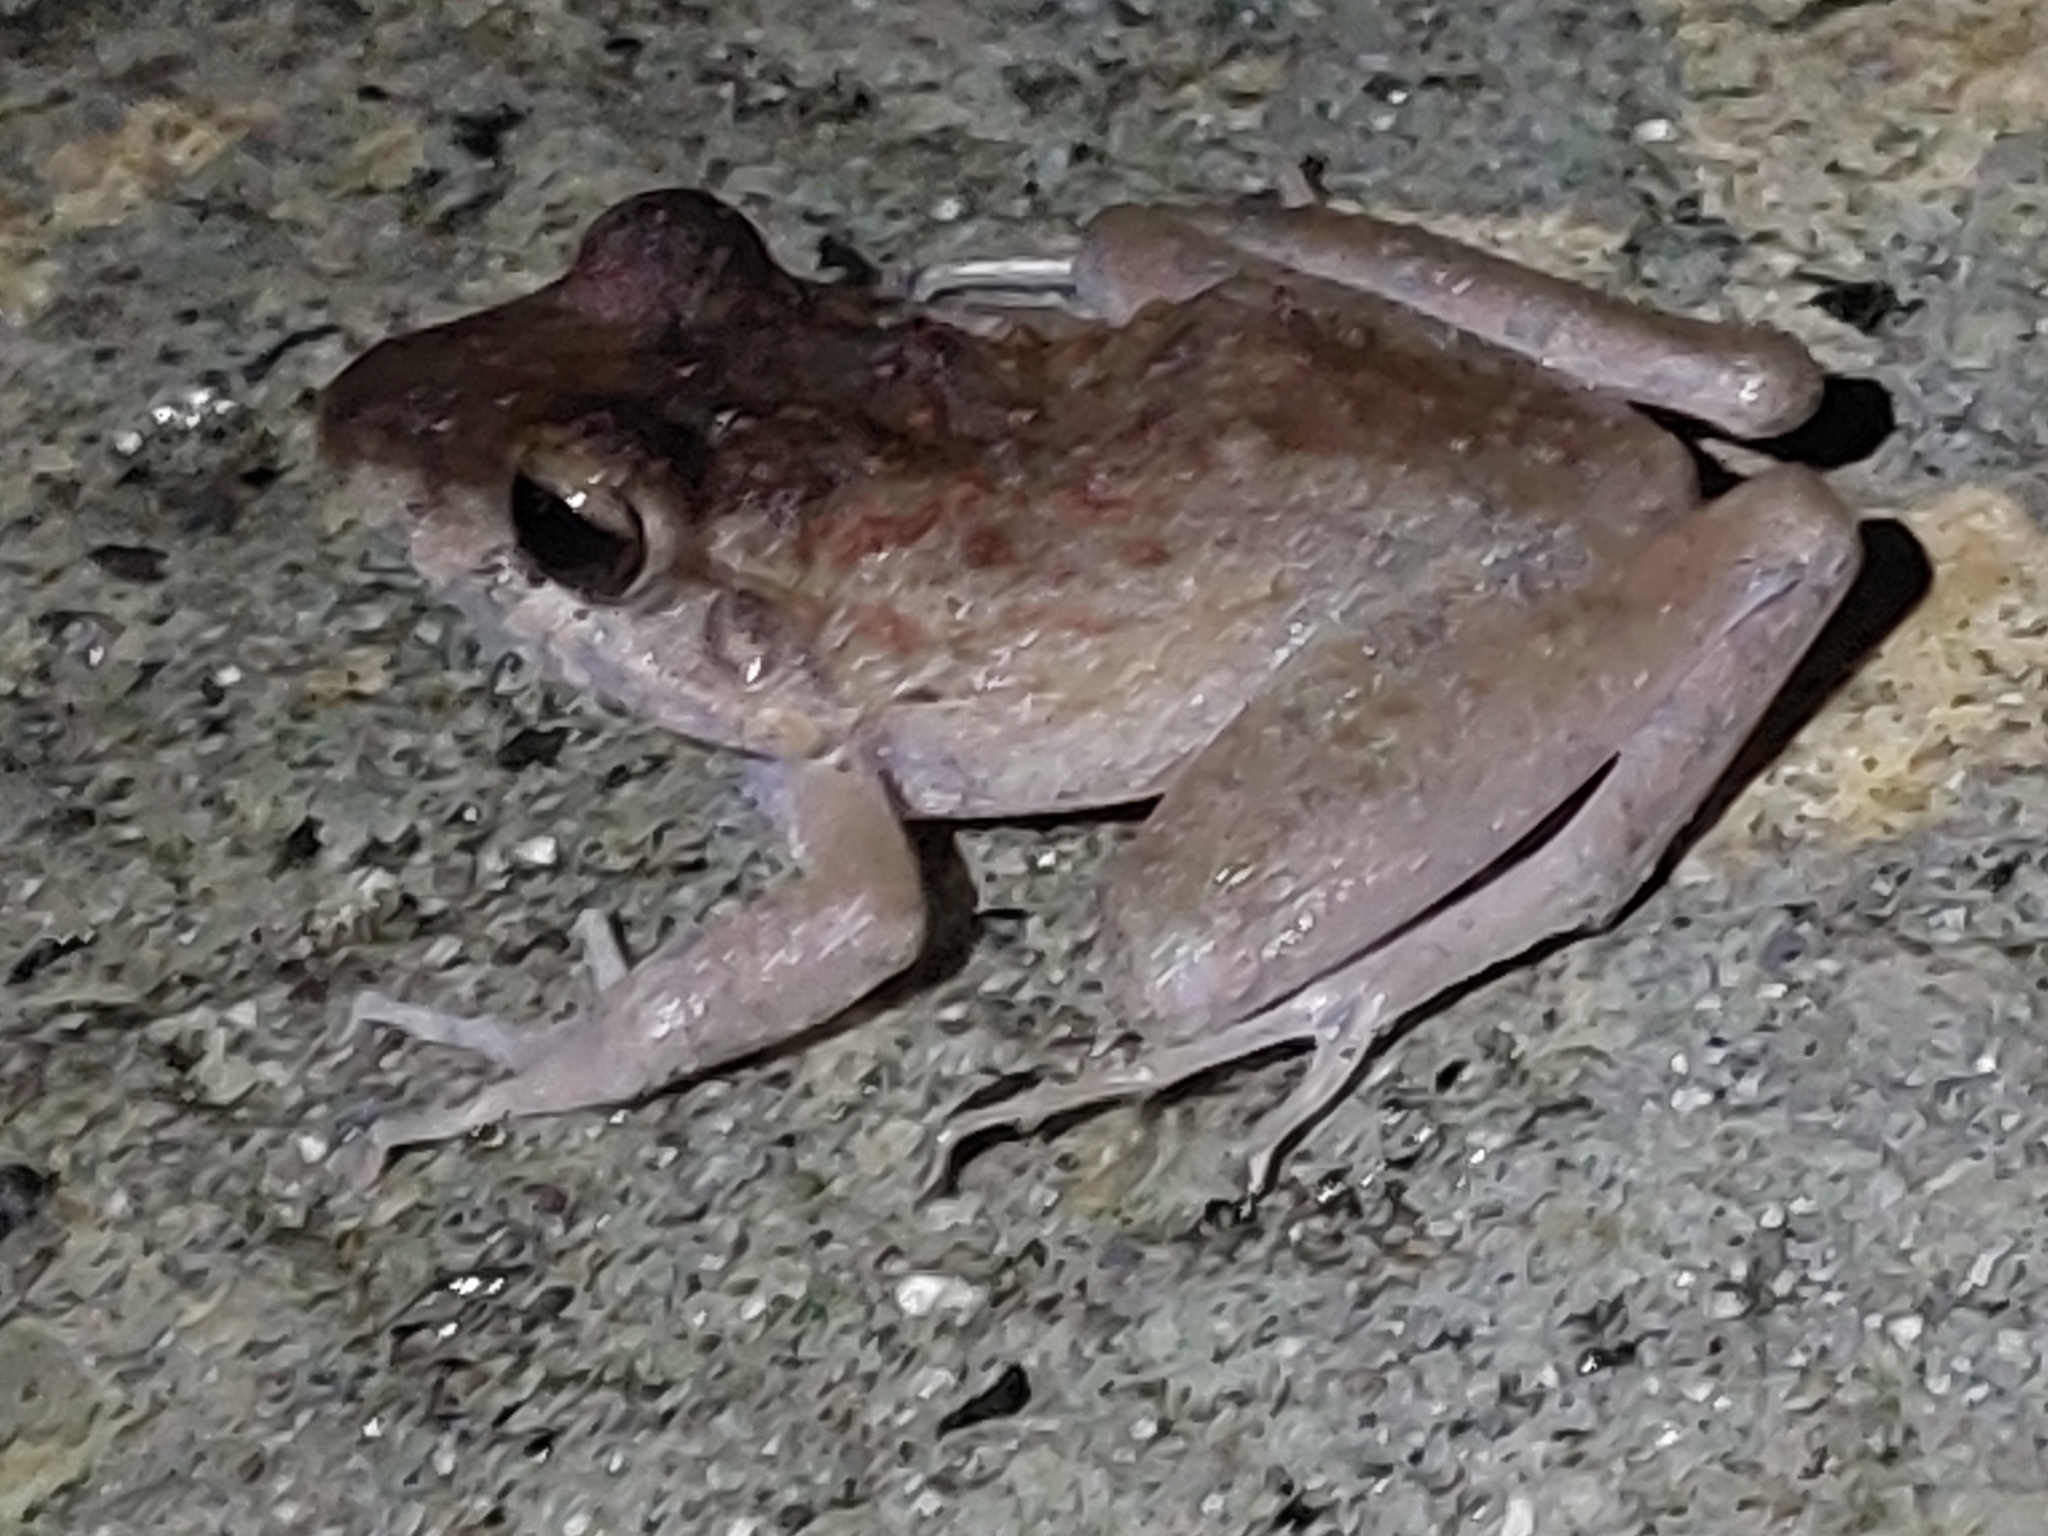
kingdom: Animalia
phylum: Chordata
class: Amphibia
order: Anura
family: Craugastoridae
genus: Craugastor
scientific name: Craugastor crassidigitus
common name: Isla bonita robber frog
